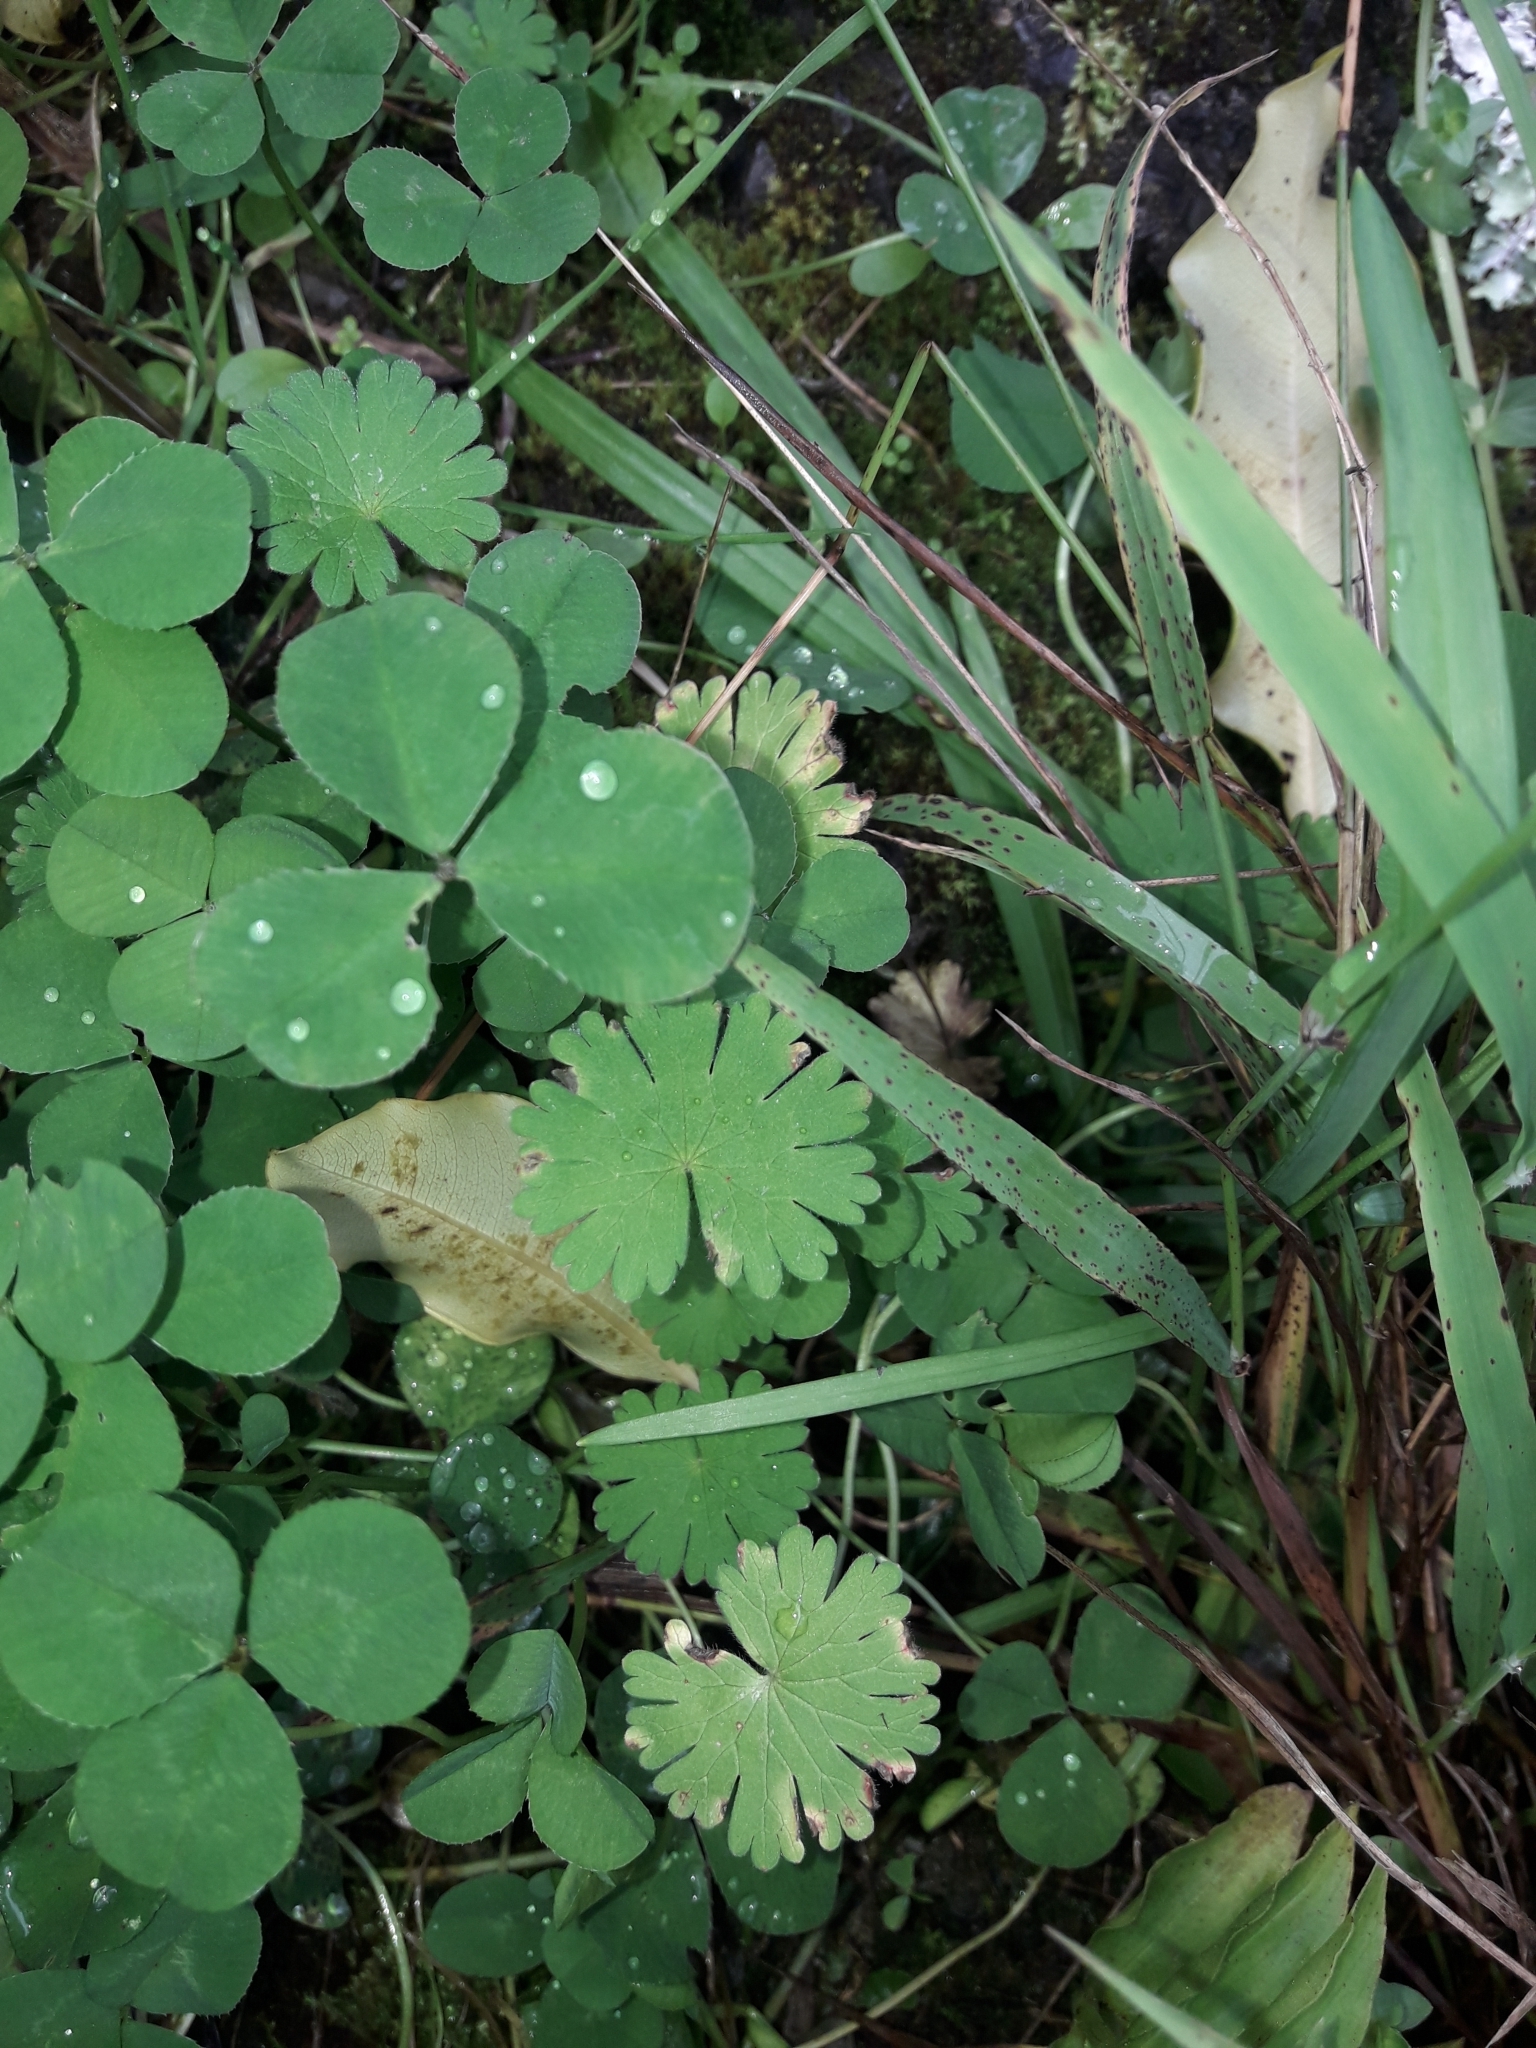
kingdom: Plantae
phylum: Tracheophyta
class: Magnoliopsida
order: Geraniales
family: Geraniaceae
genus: Geranium
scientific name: Geranium molle
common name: Dove's-foot crane's-bill
